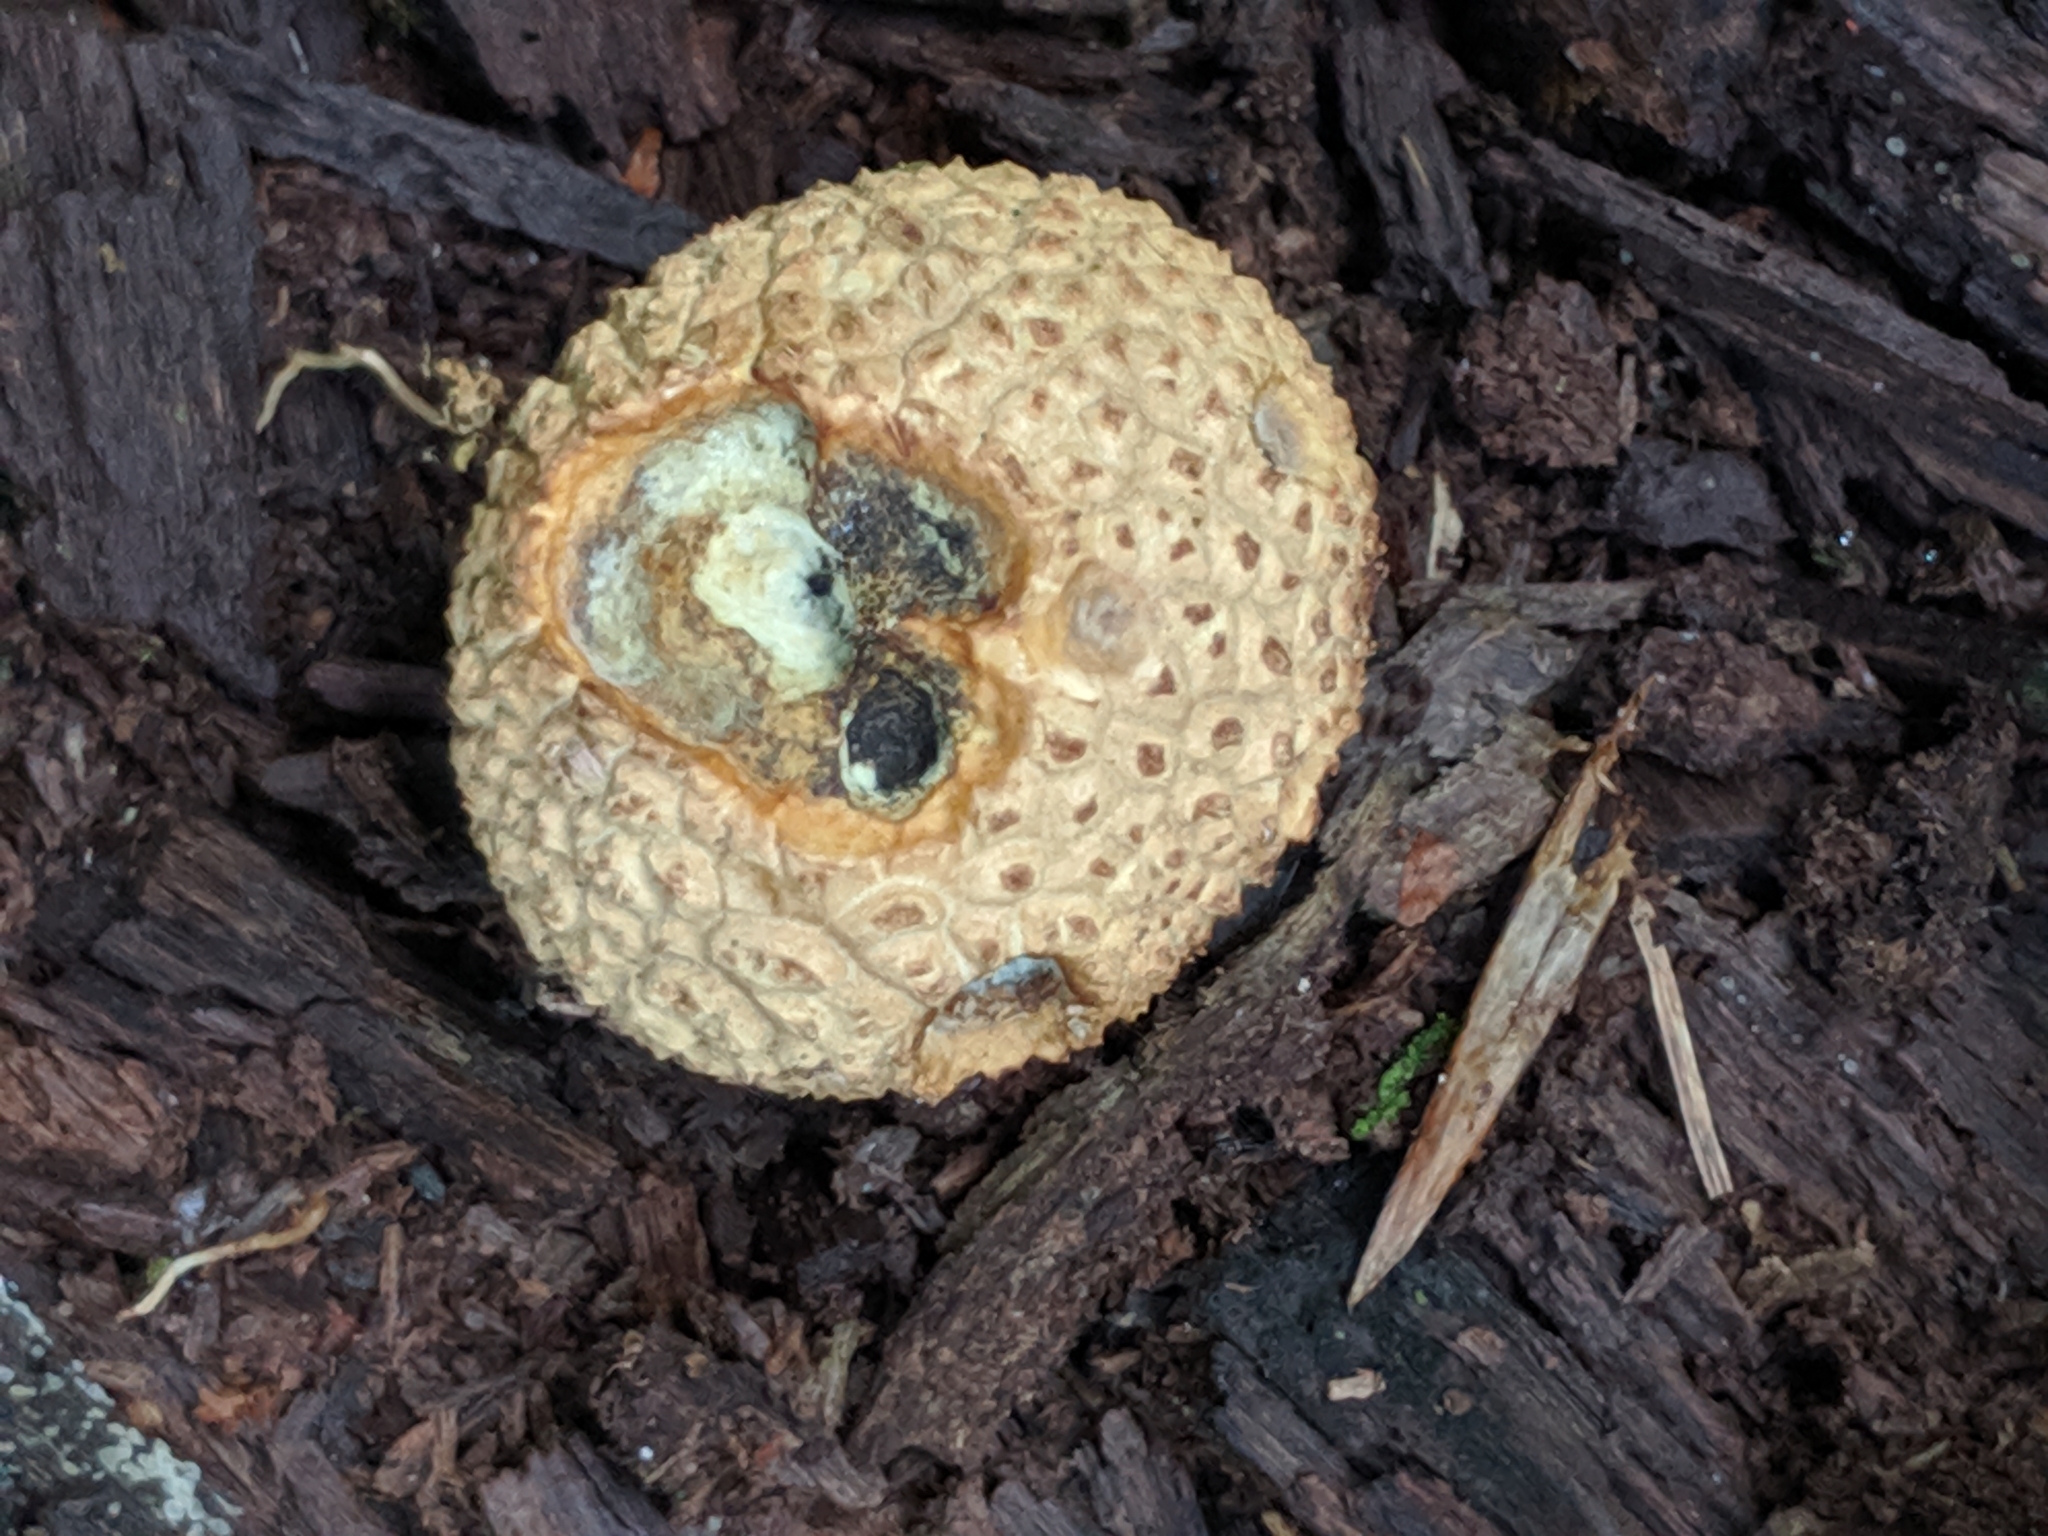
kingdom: Fungi
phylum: Basidiomycota
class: Agaricomycetes
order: Boletales
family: Sclerodermataceae
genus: Scleroderma
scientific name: Scleroderma citrinum
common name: Common earthball
